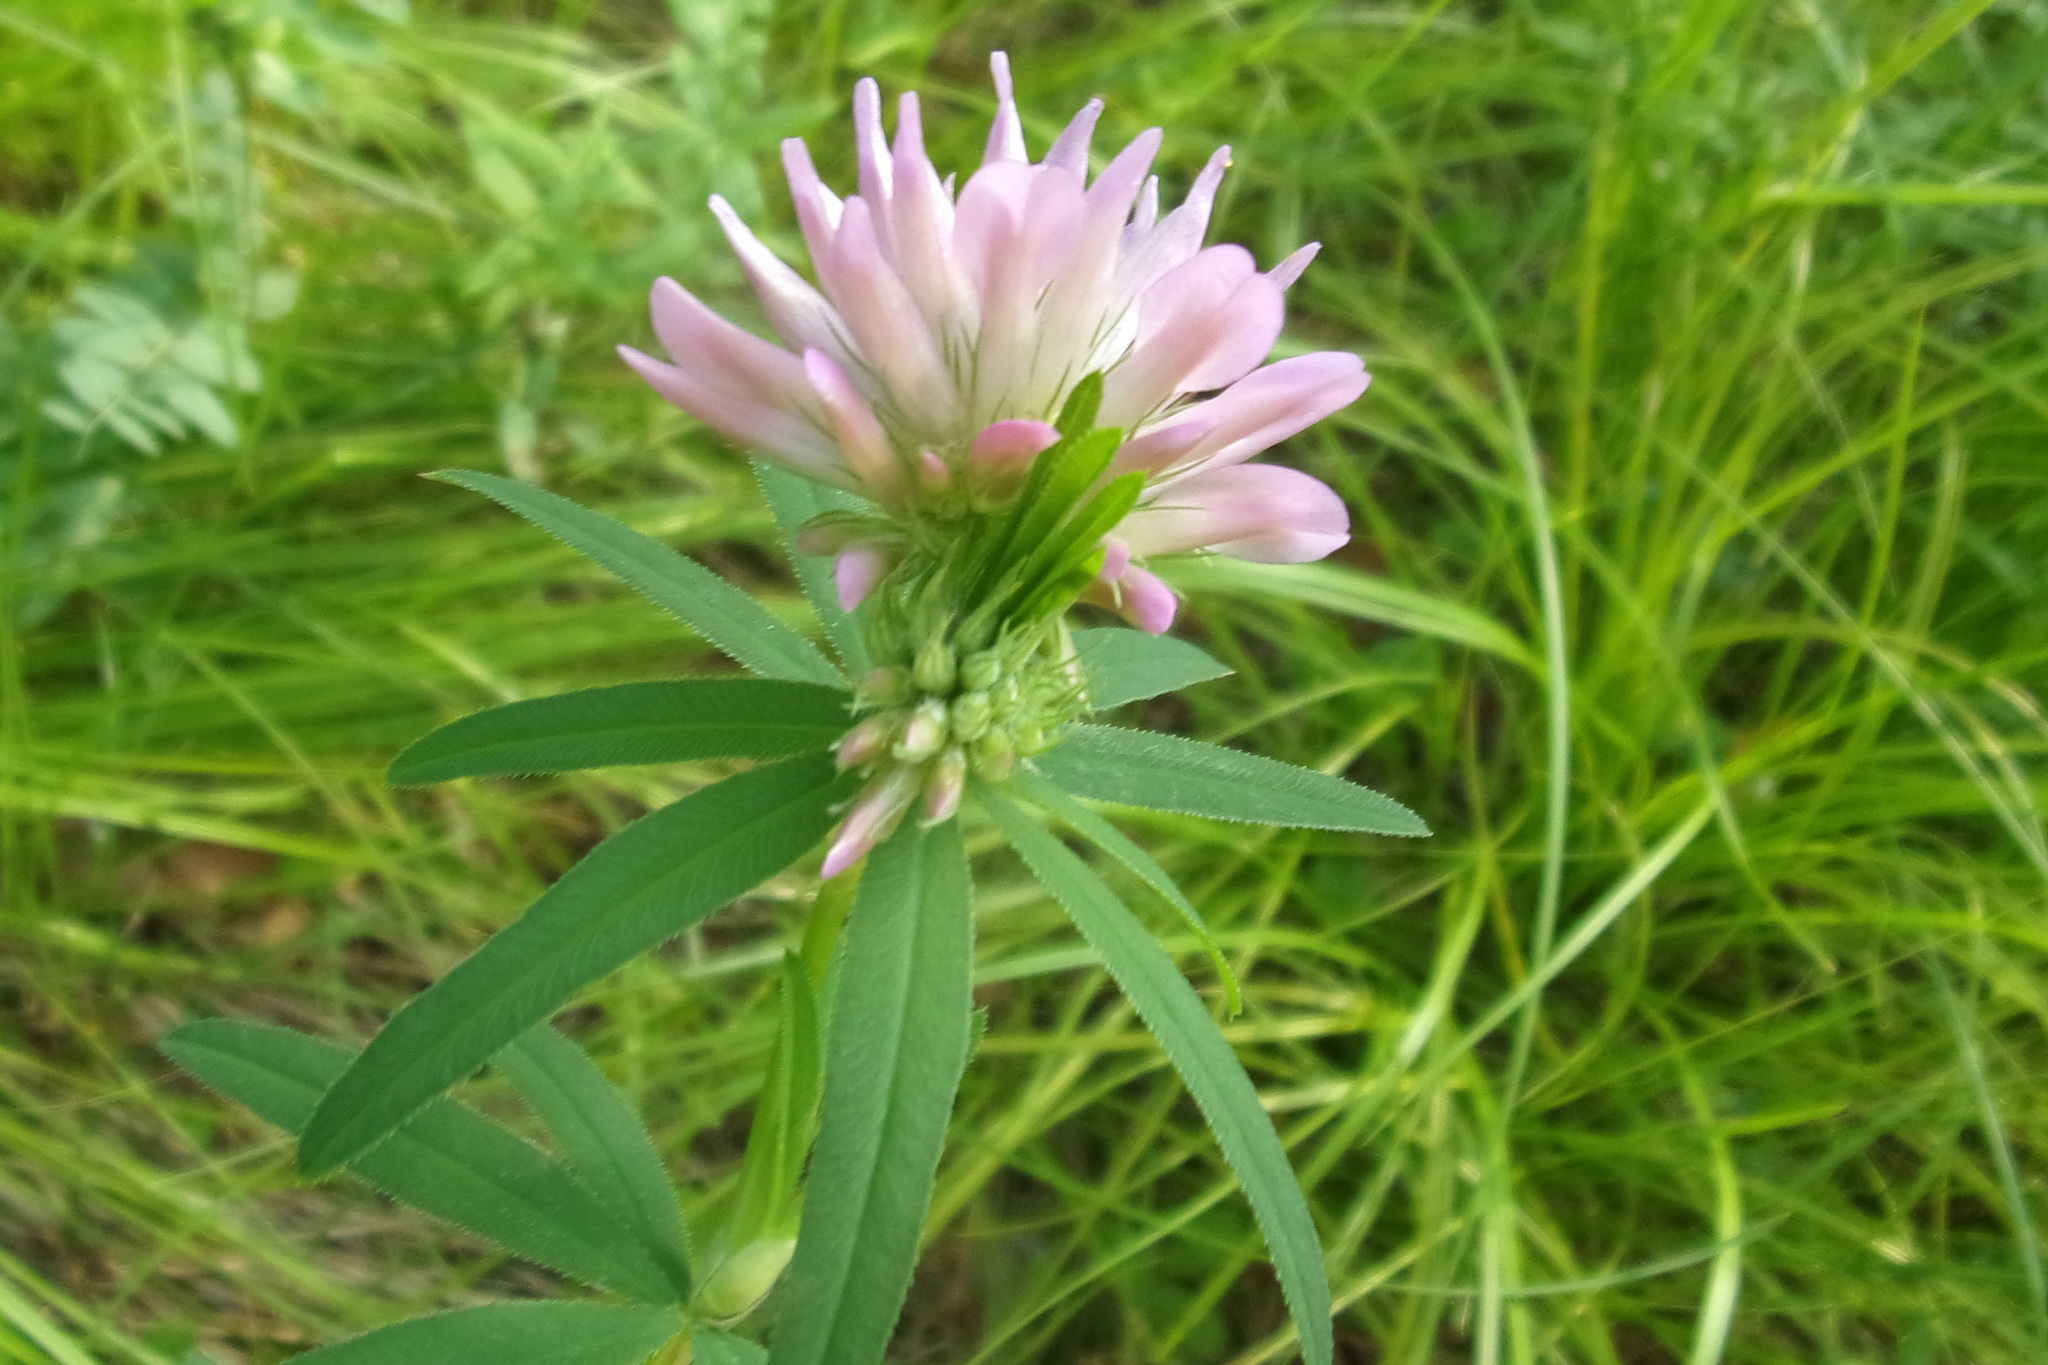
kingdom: Plantae
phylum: Tracheophyta
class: Magnoliopsida
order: Fabales
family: Fabaceae
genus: Trifolium
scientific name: Trifolium lupinaster
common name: Lupine clover
